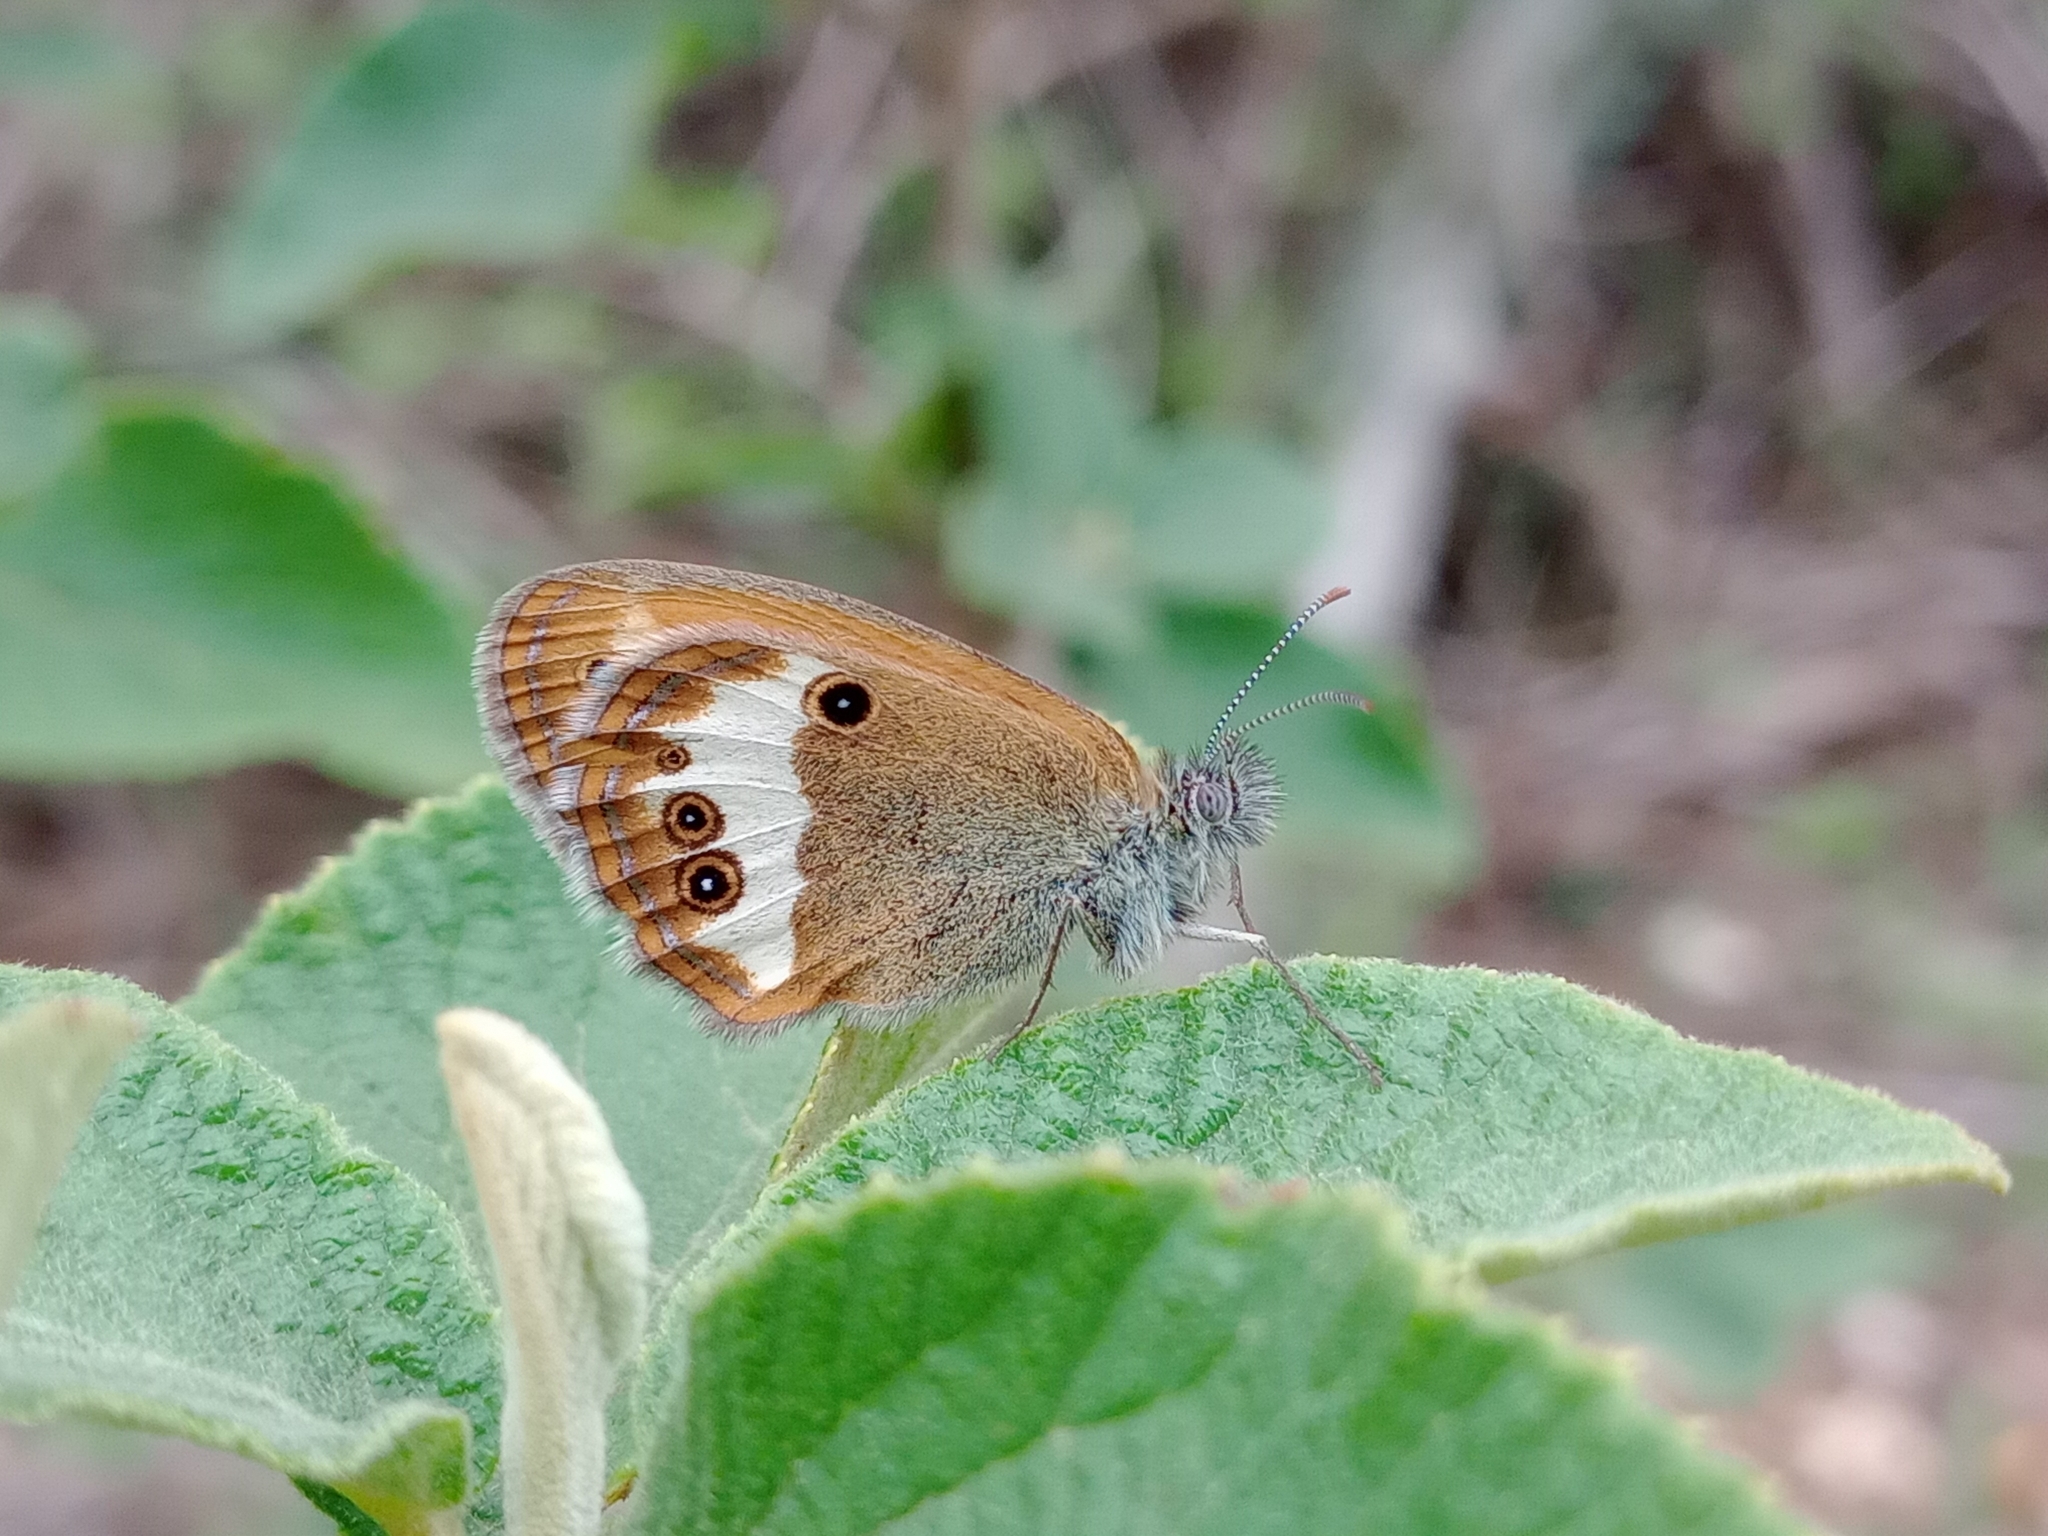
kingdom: Animalia
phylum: Arthropoda
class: Insecta
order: Lepidoptera
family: Nymphalidae
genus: Coenonympha
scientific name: Coenonympha arcania
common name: Pearly heath
